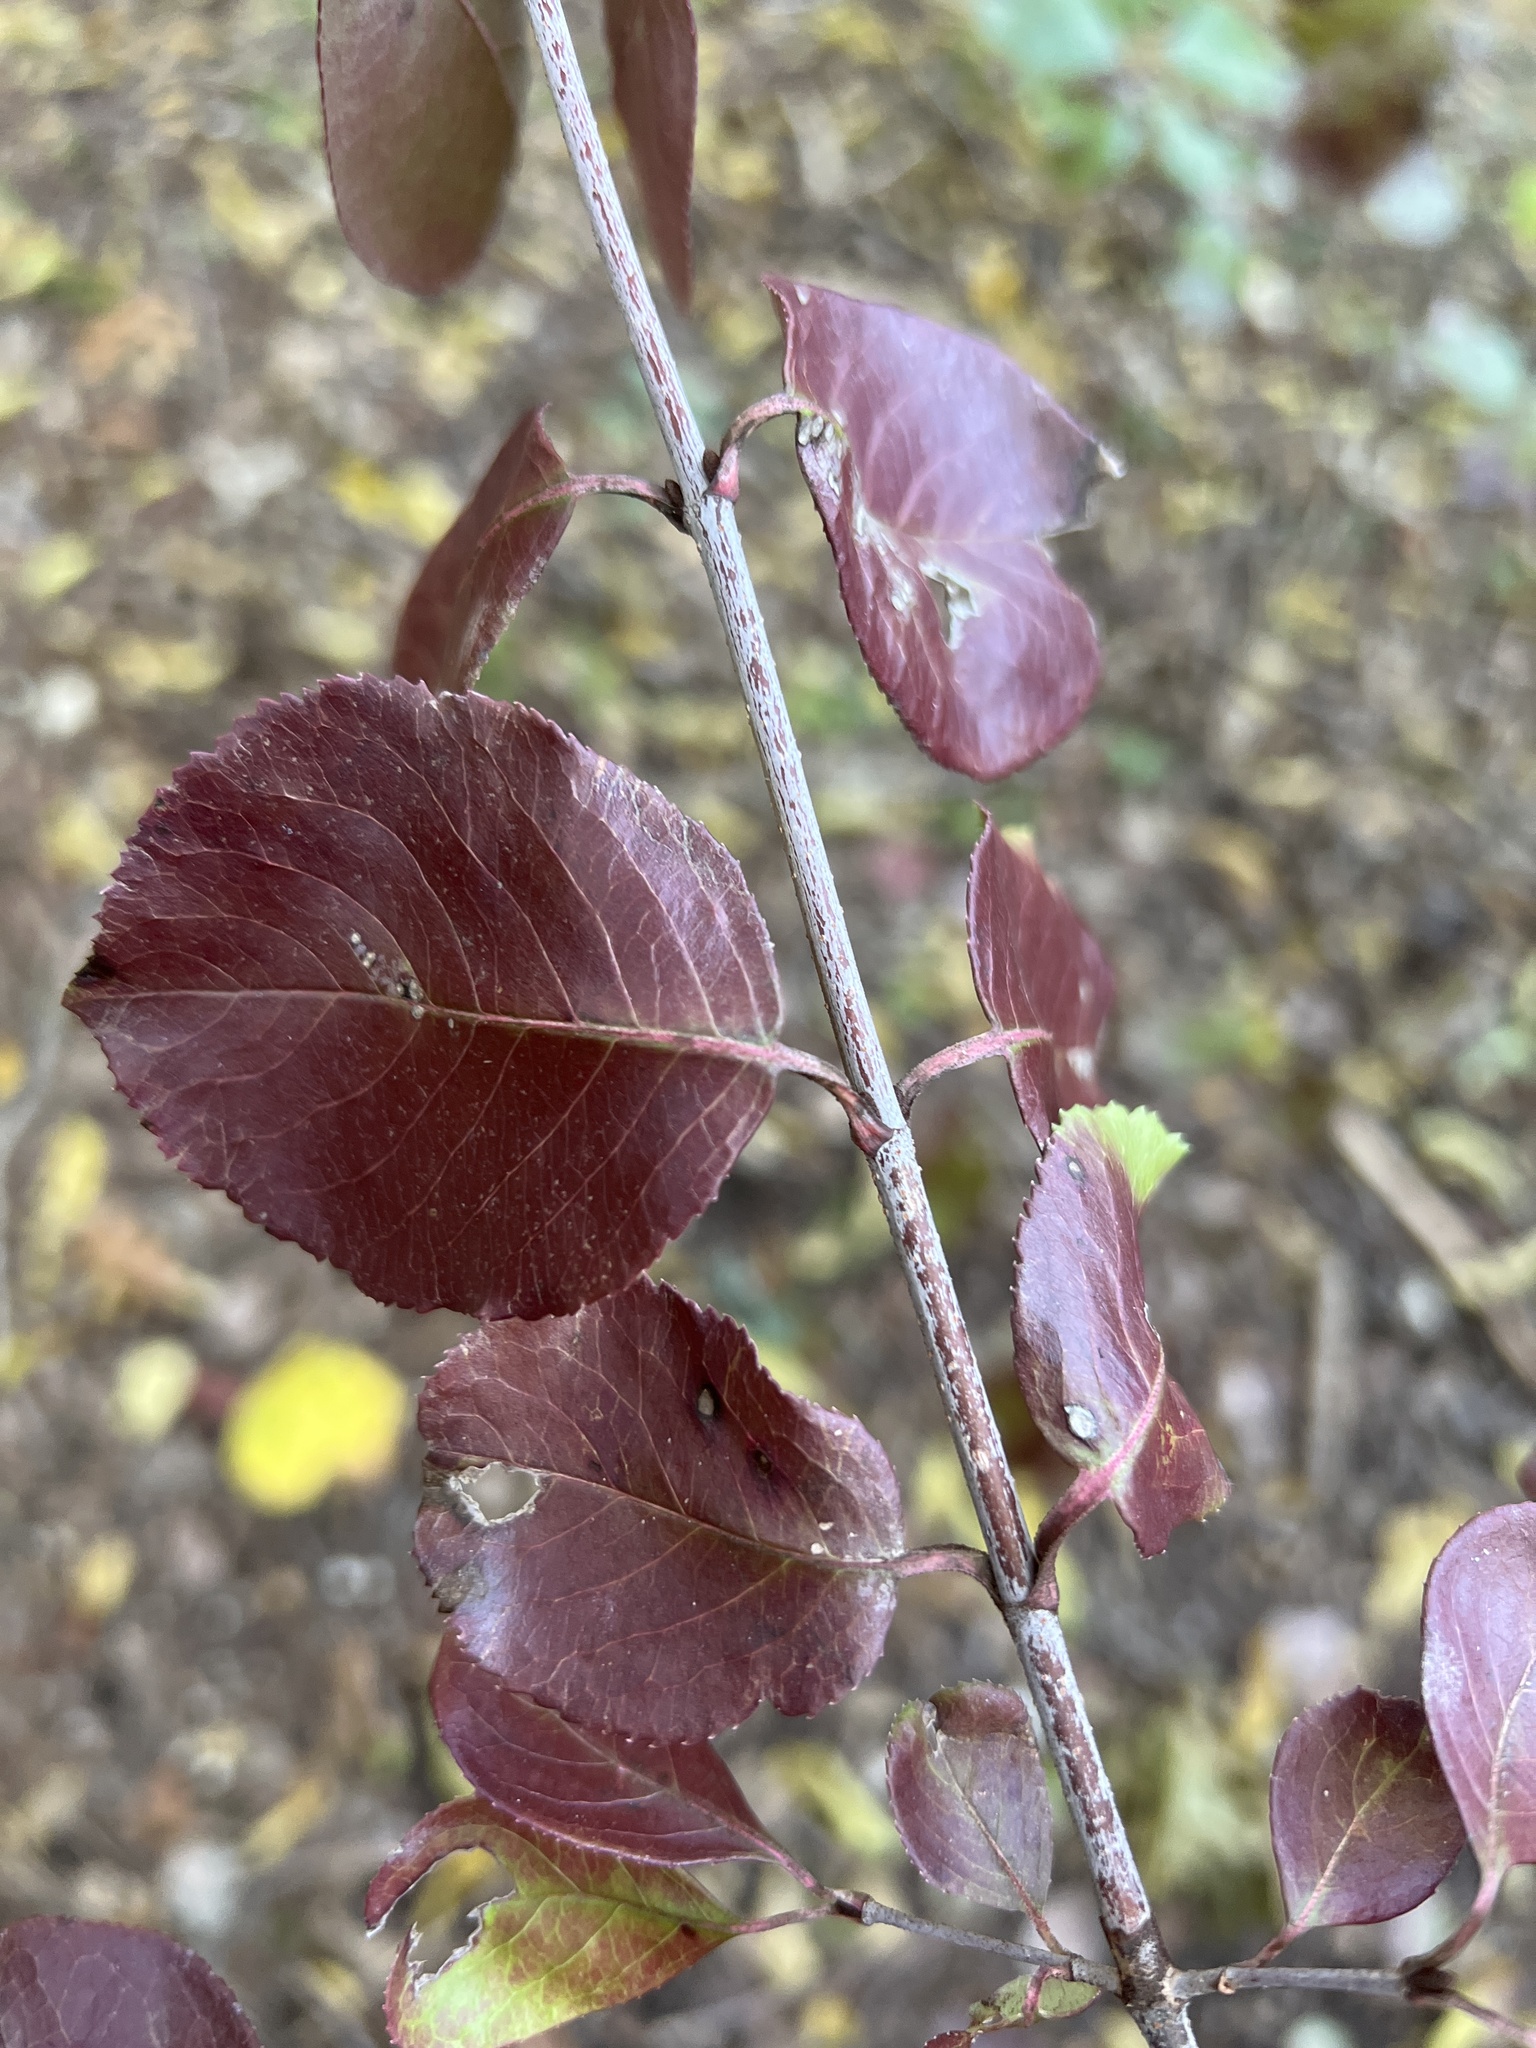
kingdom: Plantae
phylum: Tracheophyta
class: Magnoliopsida
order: Dipsacales
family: Viburnaceae
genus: Viburnum
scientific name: Viburnum rufidulum
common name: Blue haw
